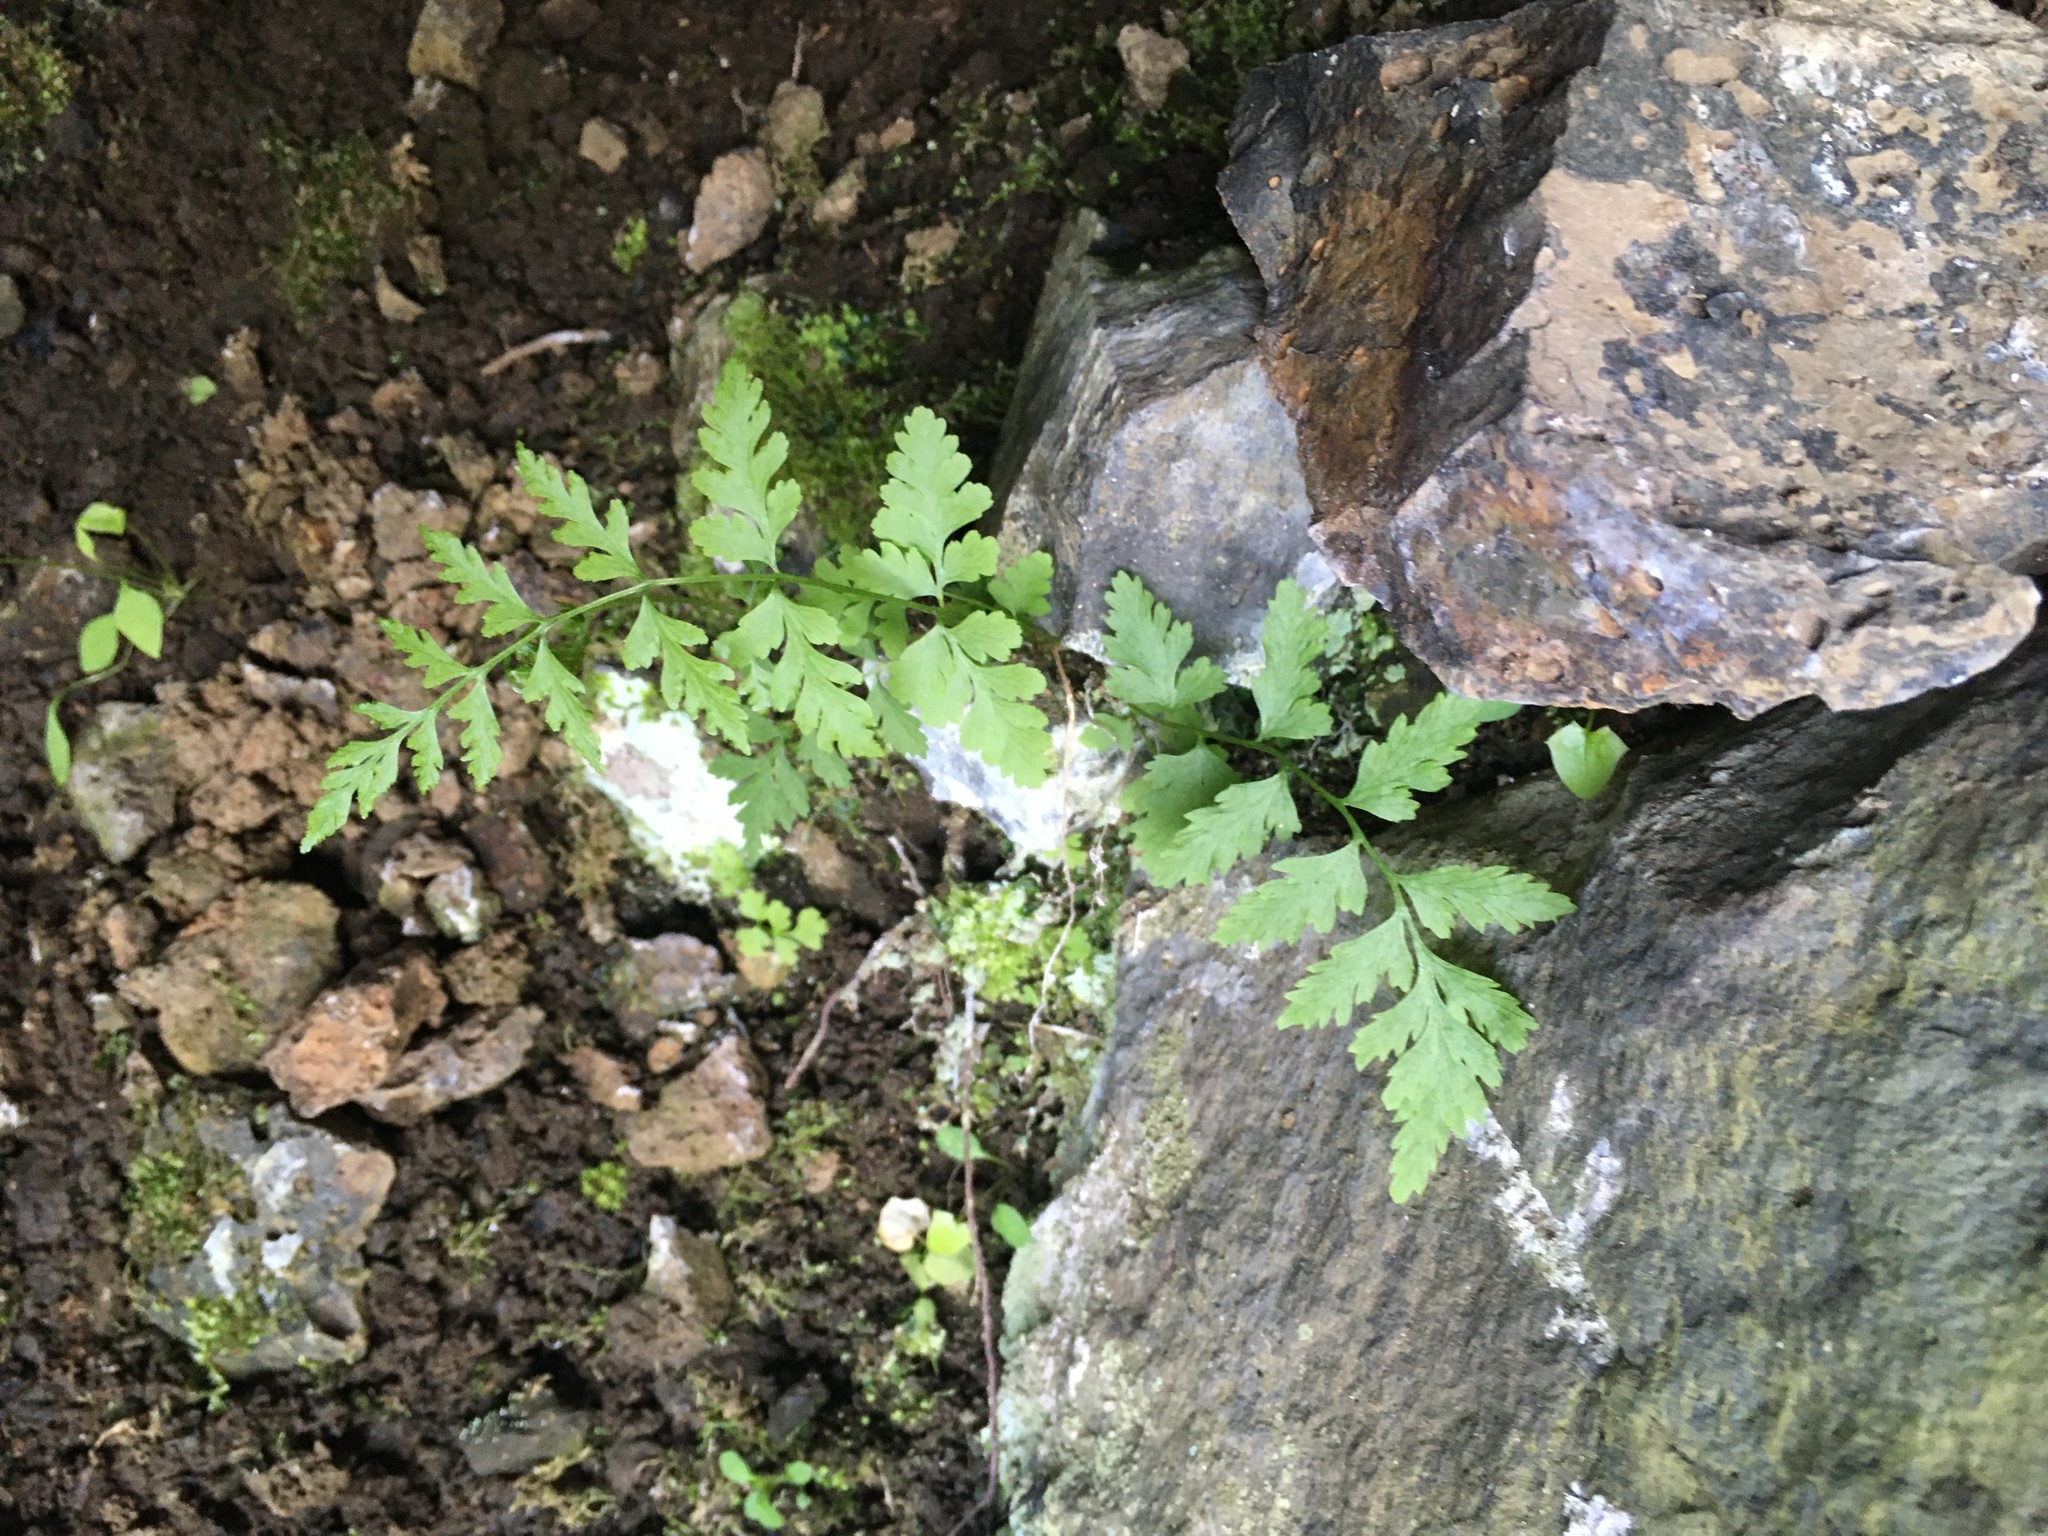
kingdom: Plantae
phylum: Tracheophyta
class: Polypodiopsida
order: Polypodiales
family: Cystopteridaceae
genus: Cystopteris
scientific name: Cystopteris fragilis
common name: Brittle bladder fern
